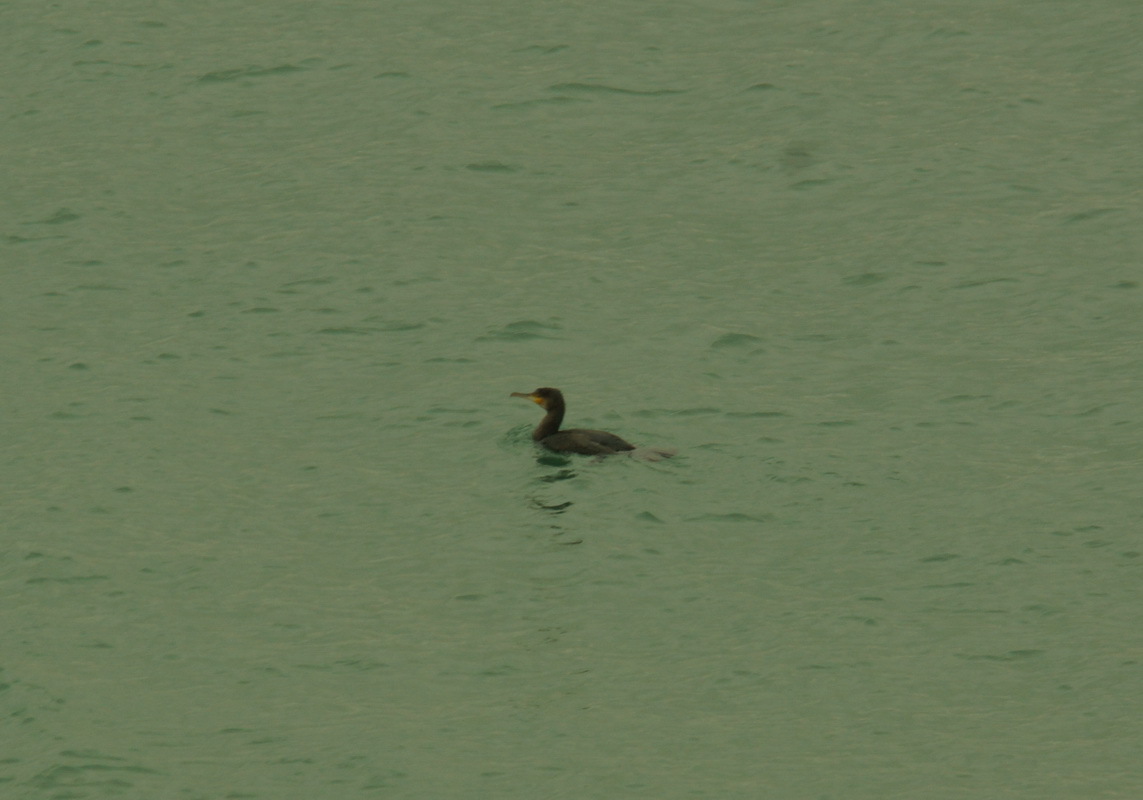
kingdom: Animalia
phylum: Chordata
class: Aves
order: Suliformes
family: Phalacrocoracidae
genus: Phalacrocorax
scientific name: Phalacrocorax carbo
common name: Great cormorant
